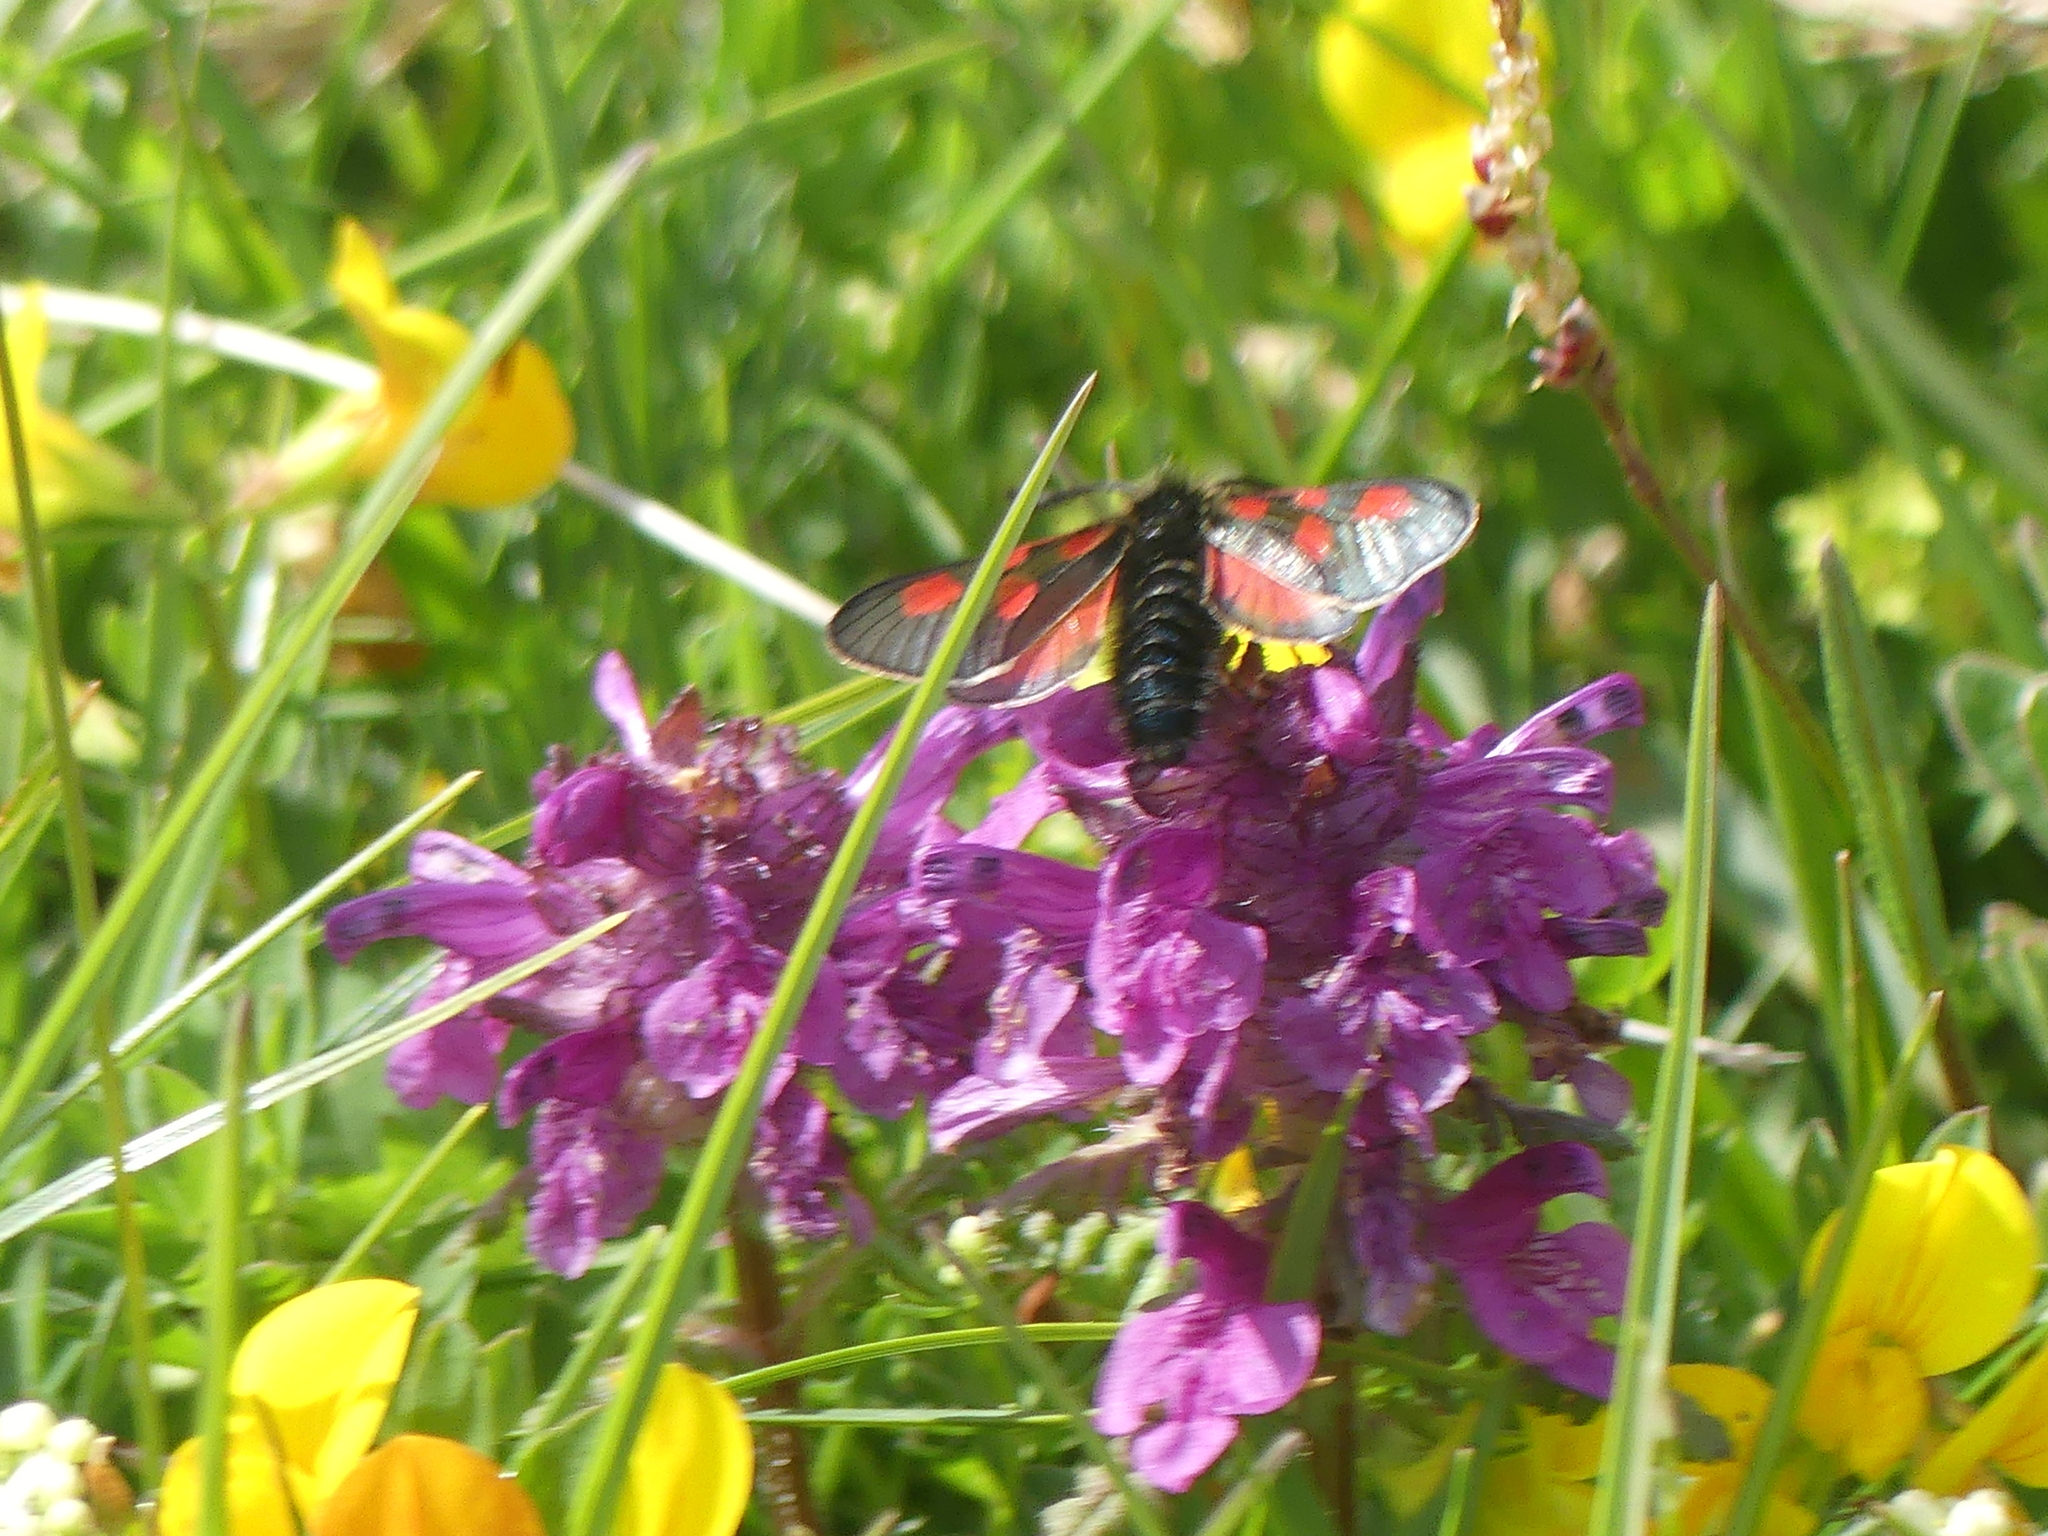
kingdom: Animalia
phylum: Arthropoda
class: Insecta
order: Lepidoptera
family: Zygaenidae
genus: Zygaena
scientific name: Zygaena exulans
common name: Scotch burnet
